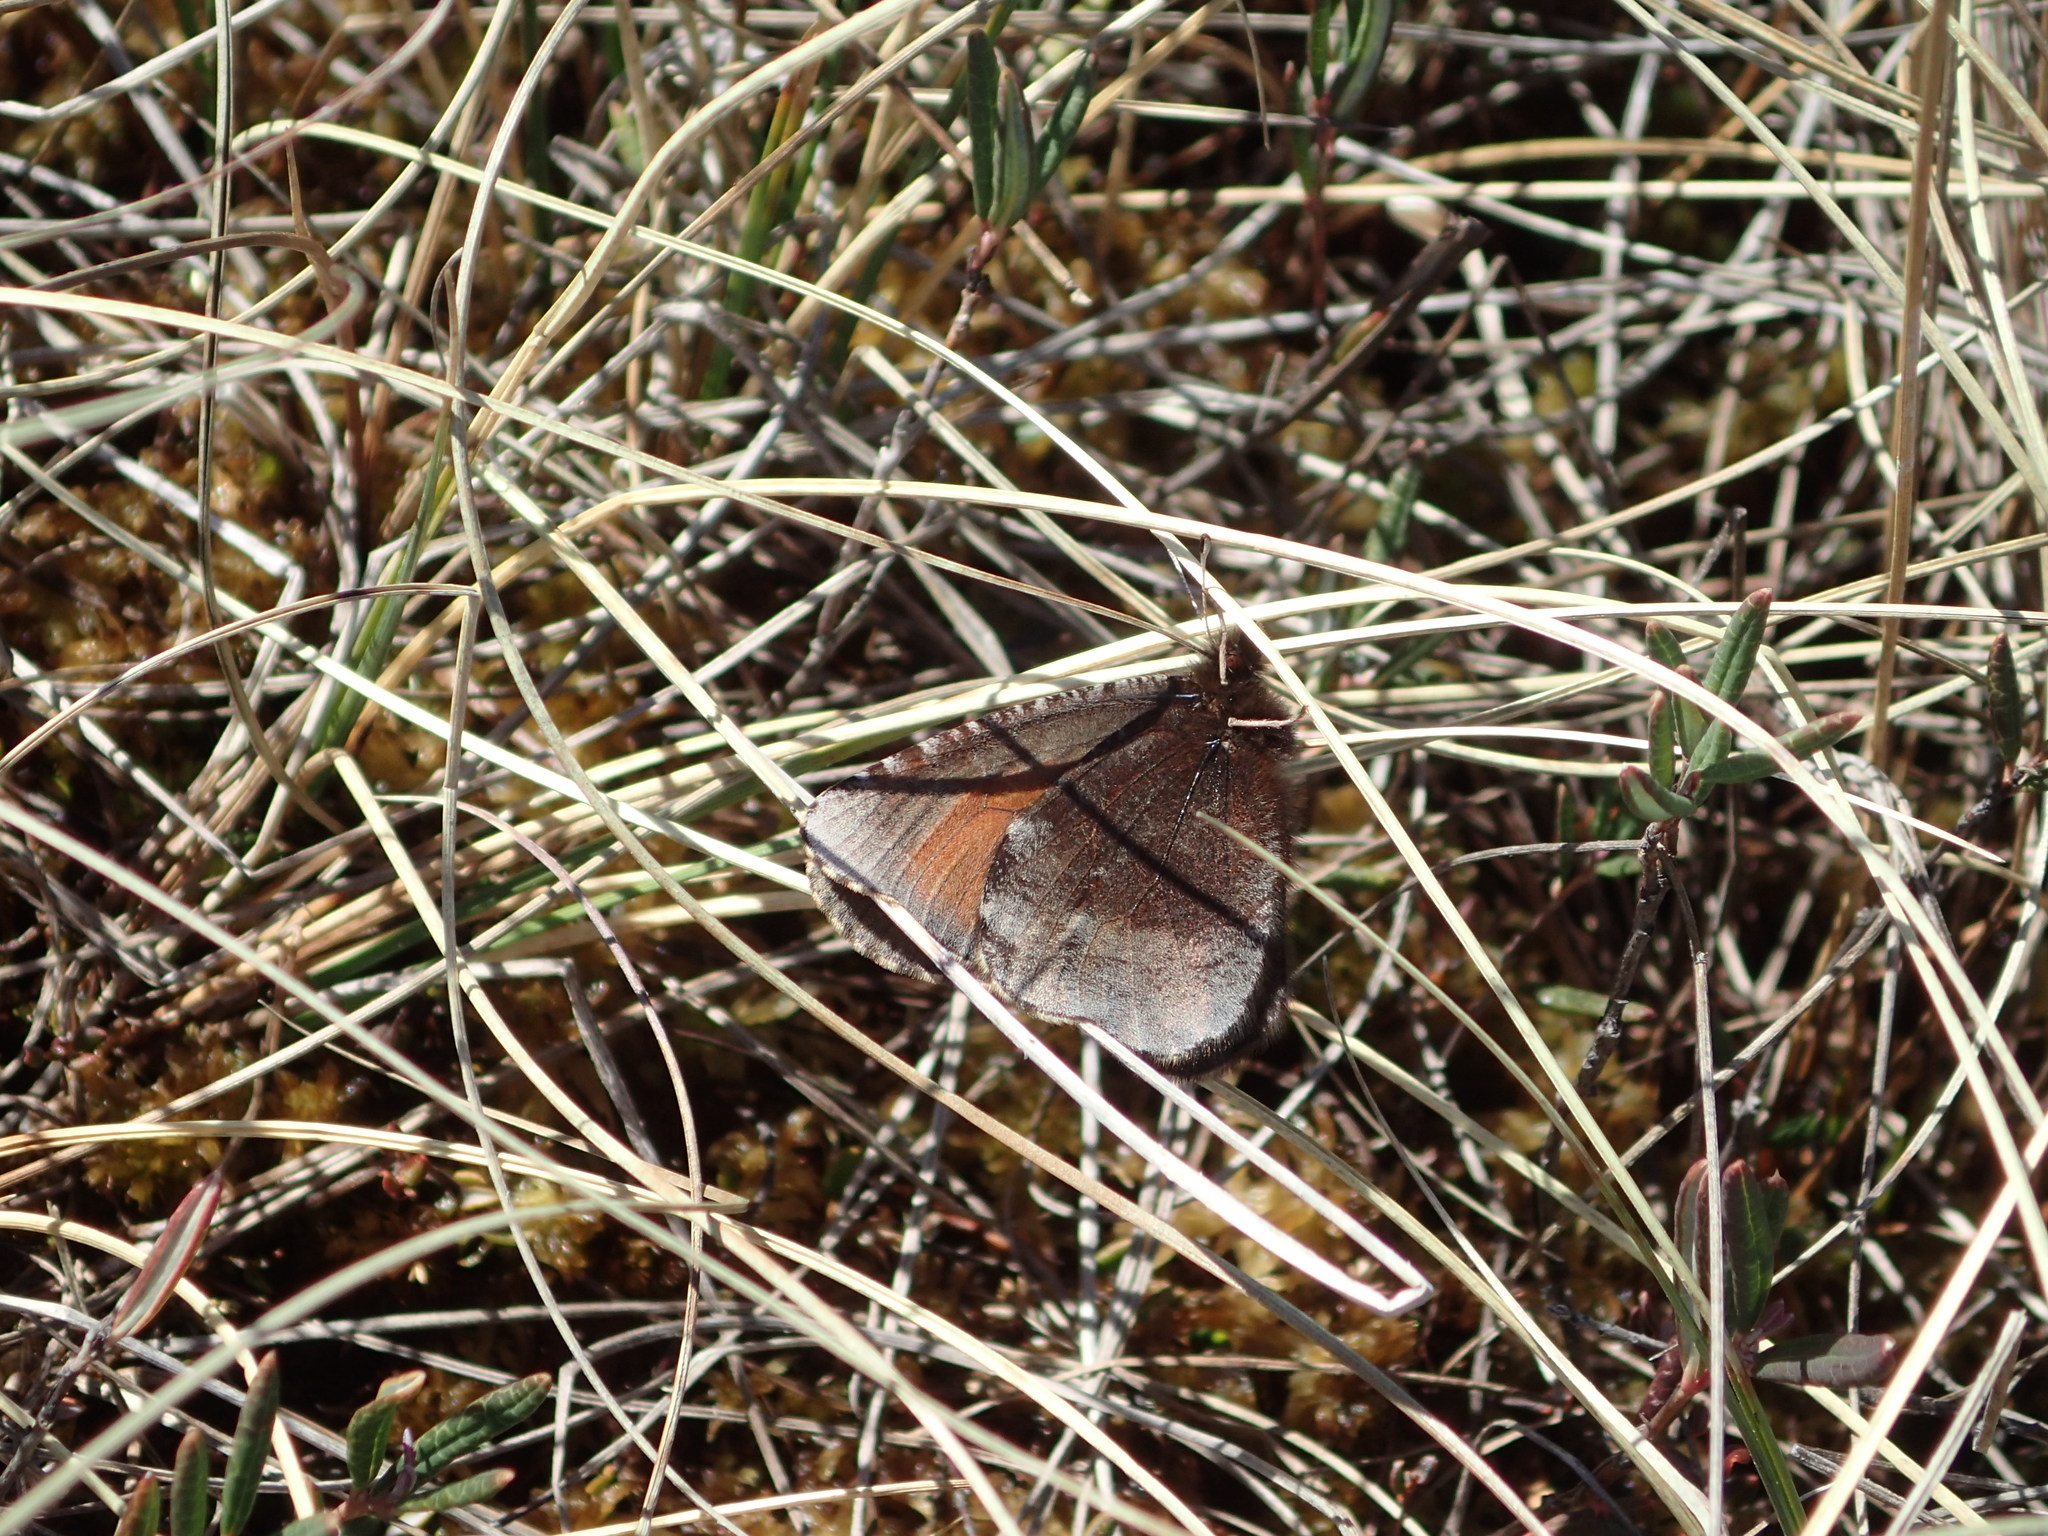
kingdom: Animalia
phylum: Arthropoda
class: Insecta
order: Lepidoptera
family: Nymphalidae
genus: Erebia
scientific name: Erebia discoidalis
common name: Red-disked alpine
